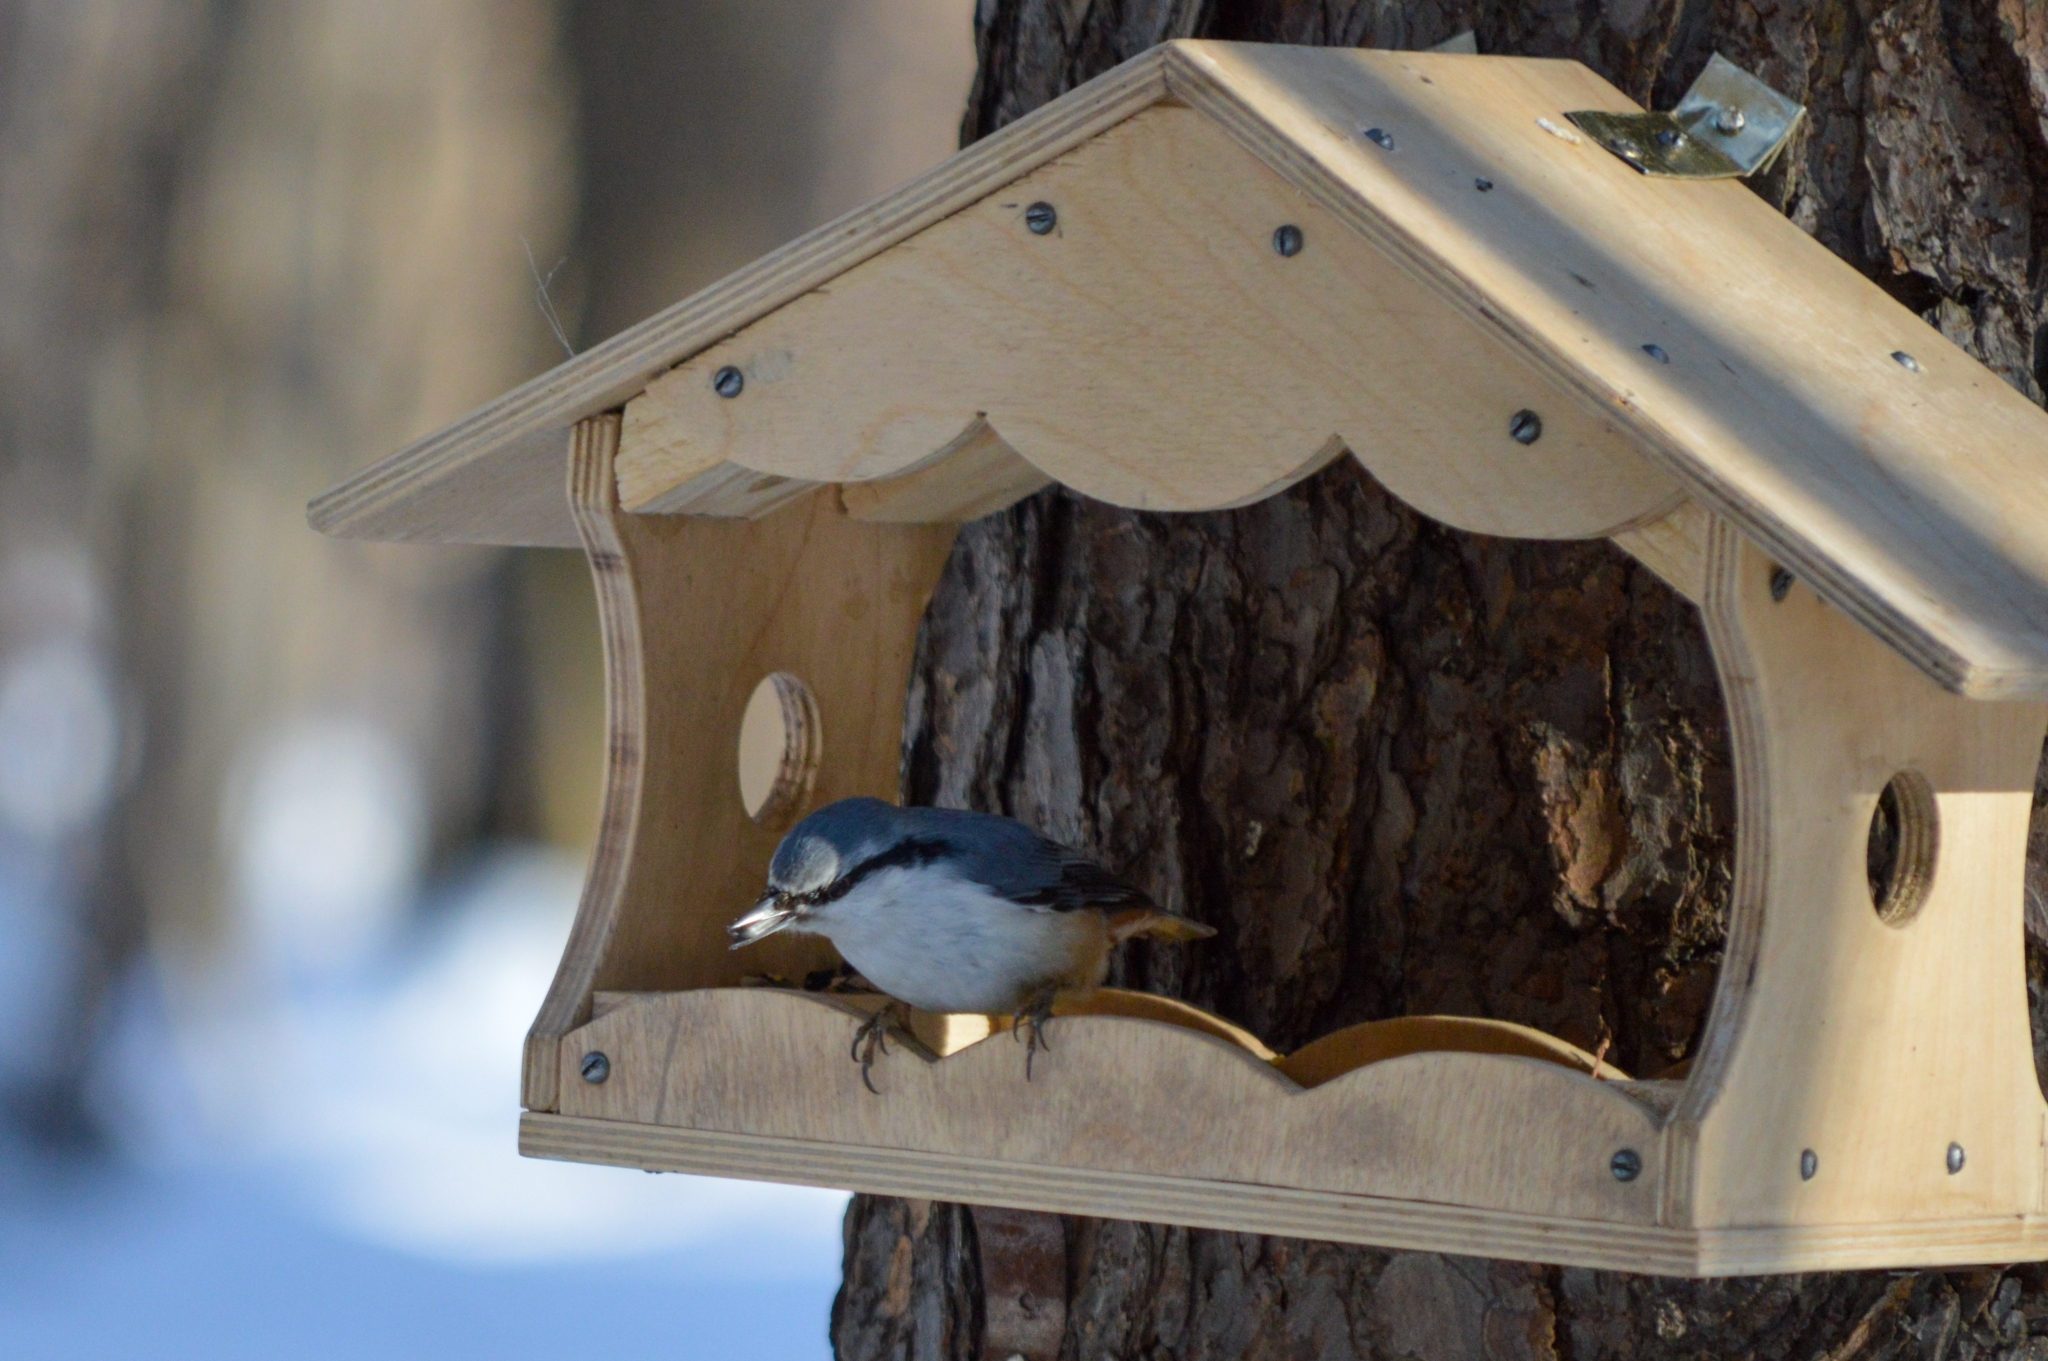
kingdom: Animalia
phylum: Chordata
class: Aves
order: Passeriformes
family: Sittidae
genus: Sitta
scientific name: Sitta europaea
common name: Eurasian nuthatch
